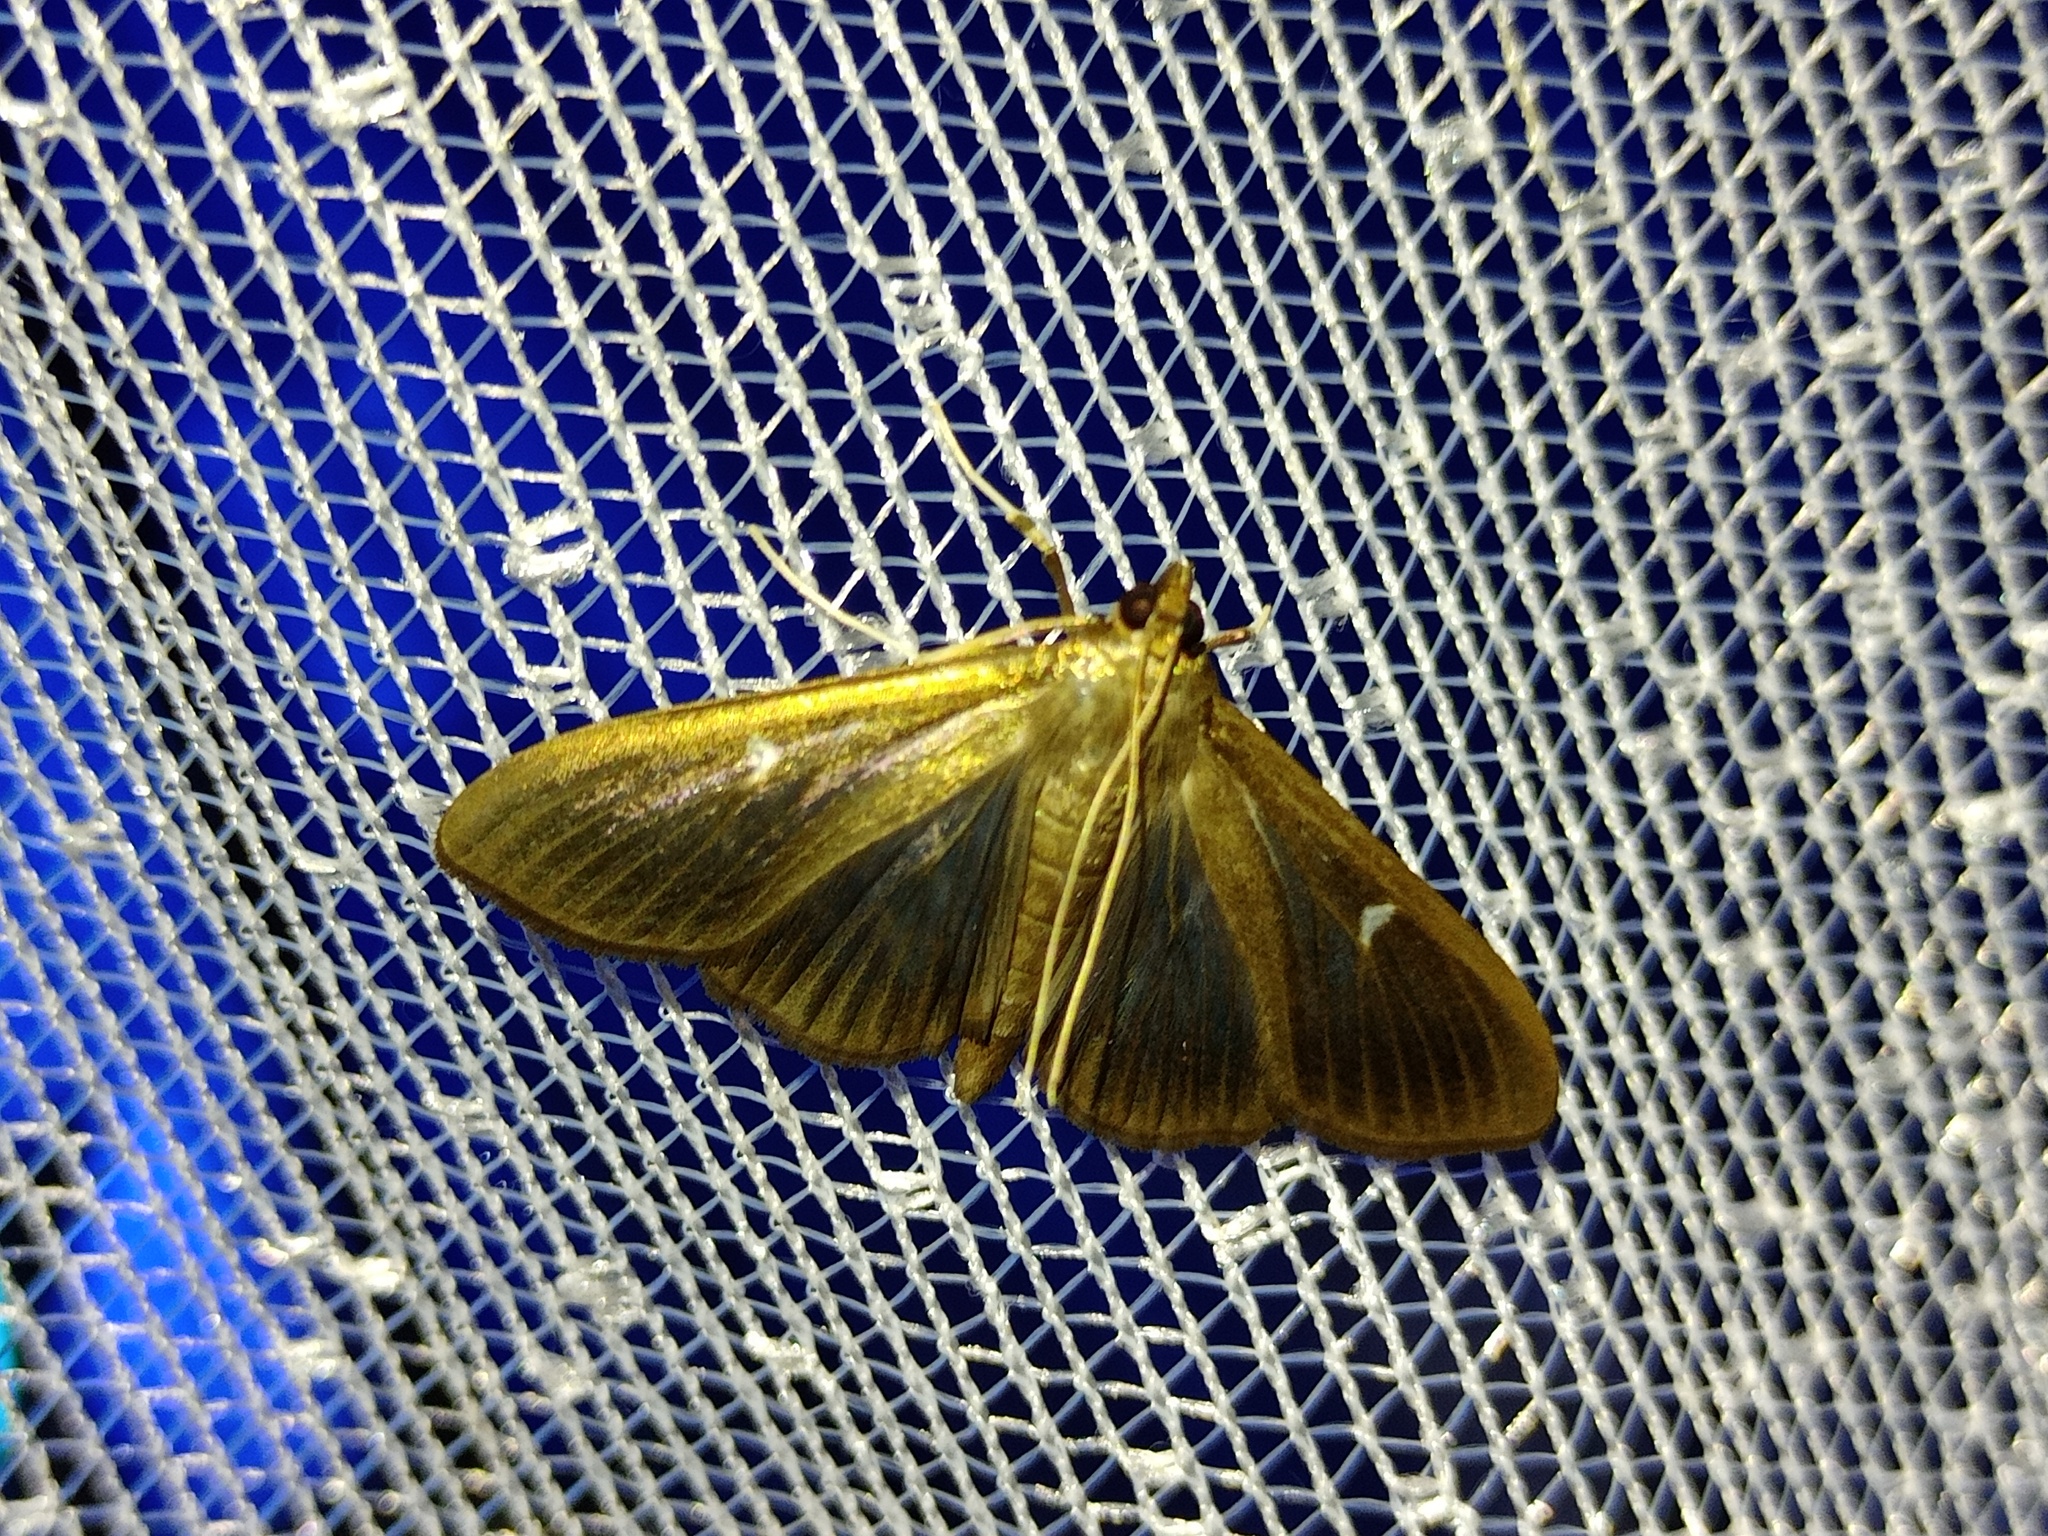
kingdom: Animalia
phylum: Arthropoda
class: Insecta
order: Lepidoptera
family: Crambidae
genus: Cydalima
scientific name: Cydalima perspectalis
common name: Box tree moth
